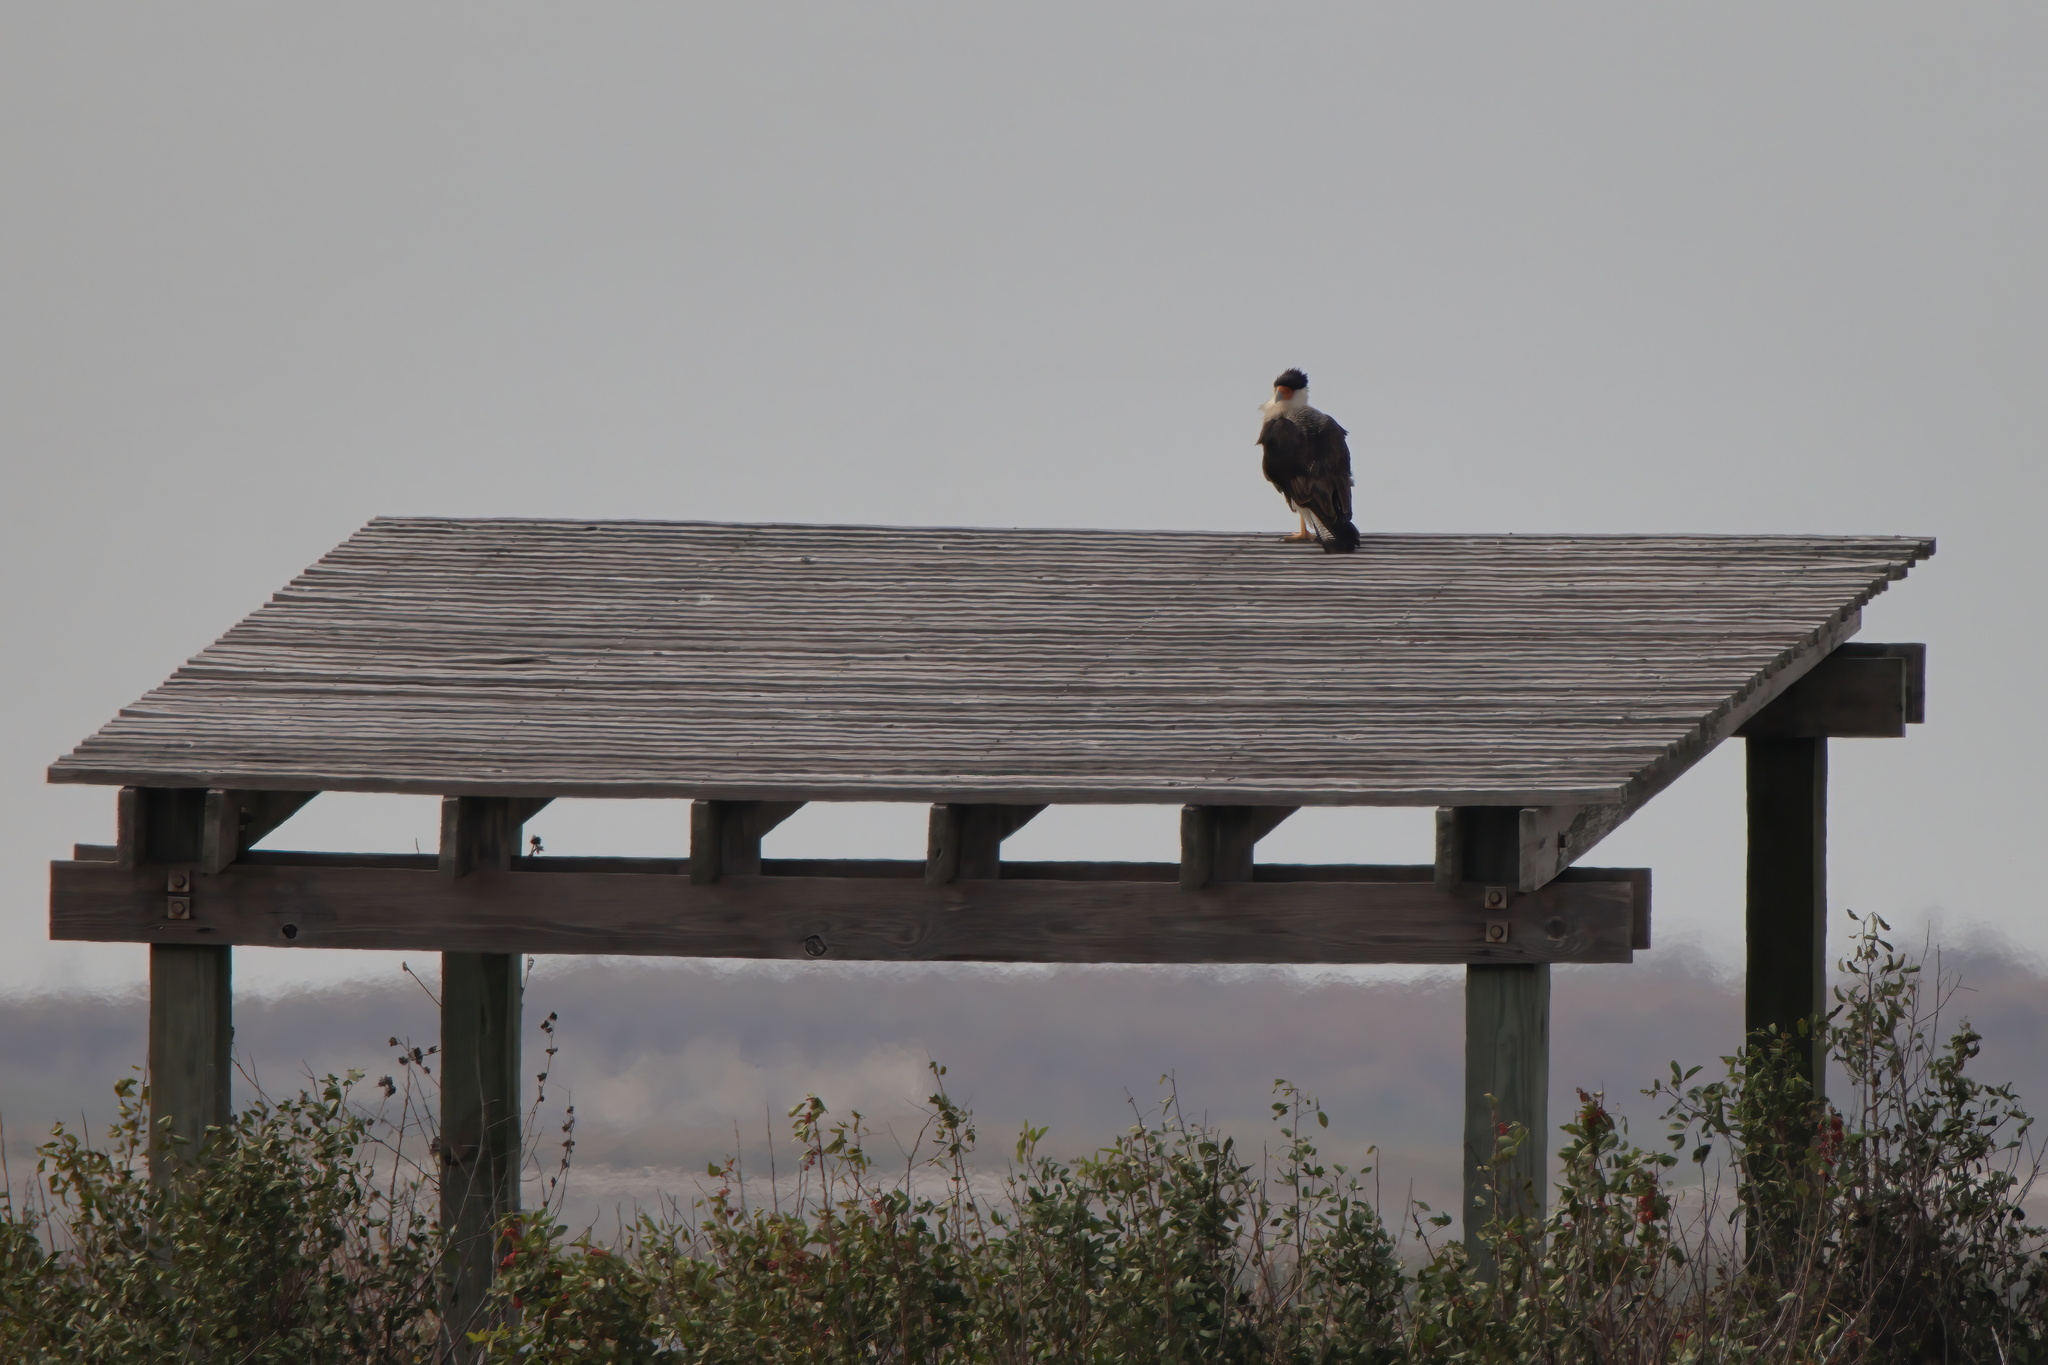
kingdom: Animalia
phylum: Chordata
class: Aves
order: Falconiformes
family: Falconidae
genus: Caracara
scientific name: Caracara plancus
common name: Southern caracara
